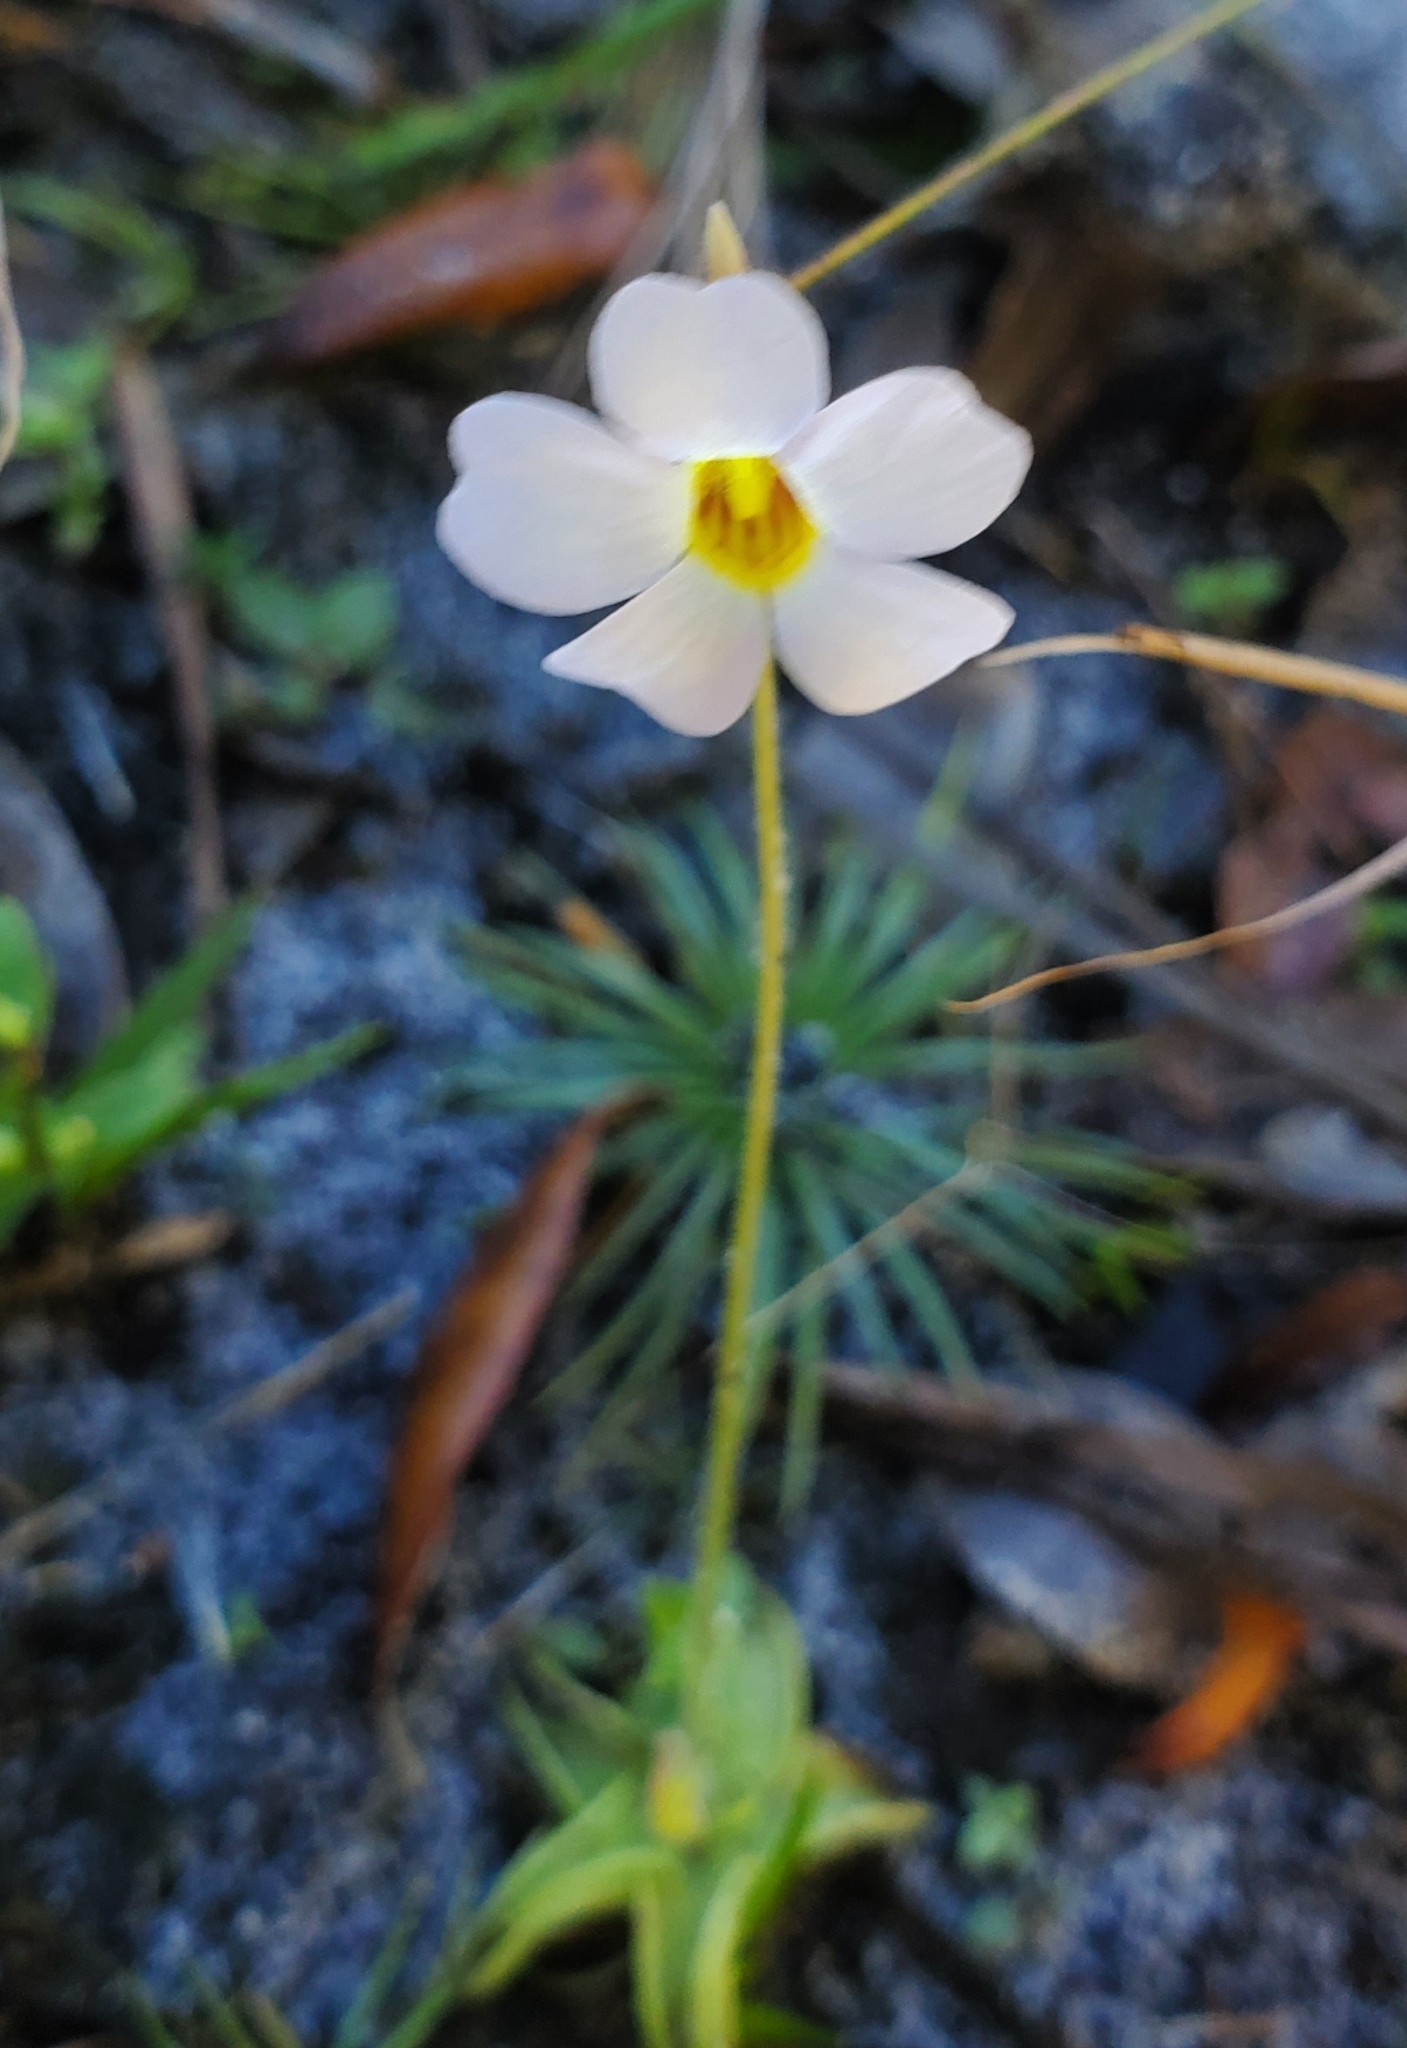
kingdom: Plantae
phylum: Tracheophyta
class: Magnoliopsida
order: Lamiales
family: Lentibulariaceae
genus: Pinguicula
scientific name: Pinguicula pumila
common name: Small butterwort
